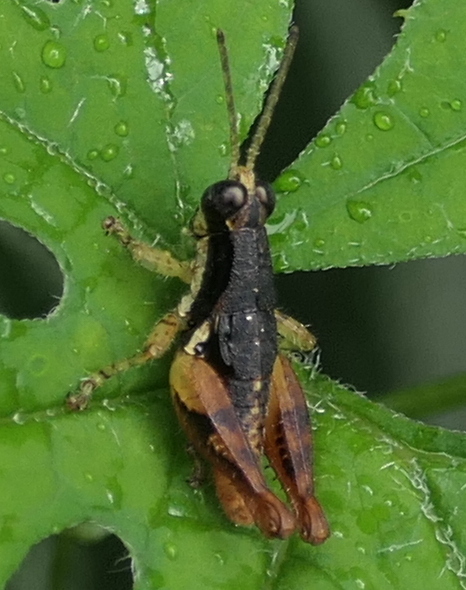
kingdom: Animalia
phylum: Arthropoda
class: Insecta
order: Orthoptera
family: Acrididae
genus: Eujivarus
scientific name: Eujivarus meridionalis
